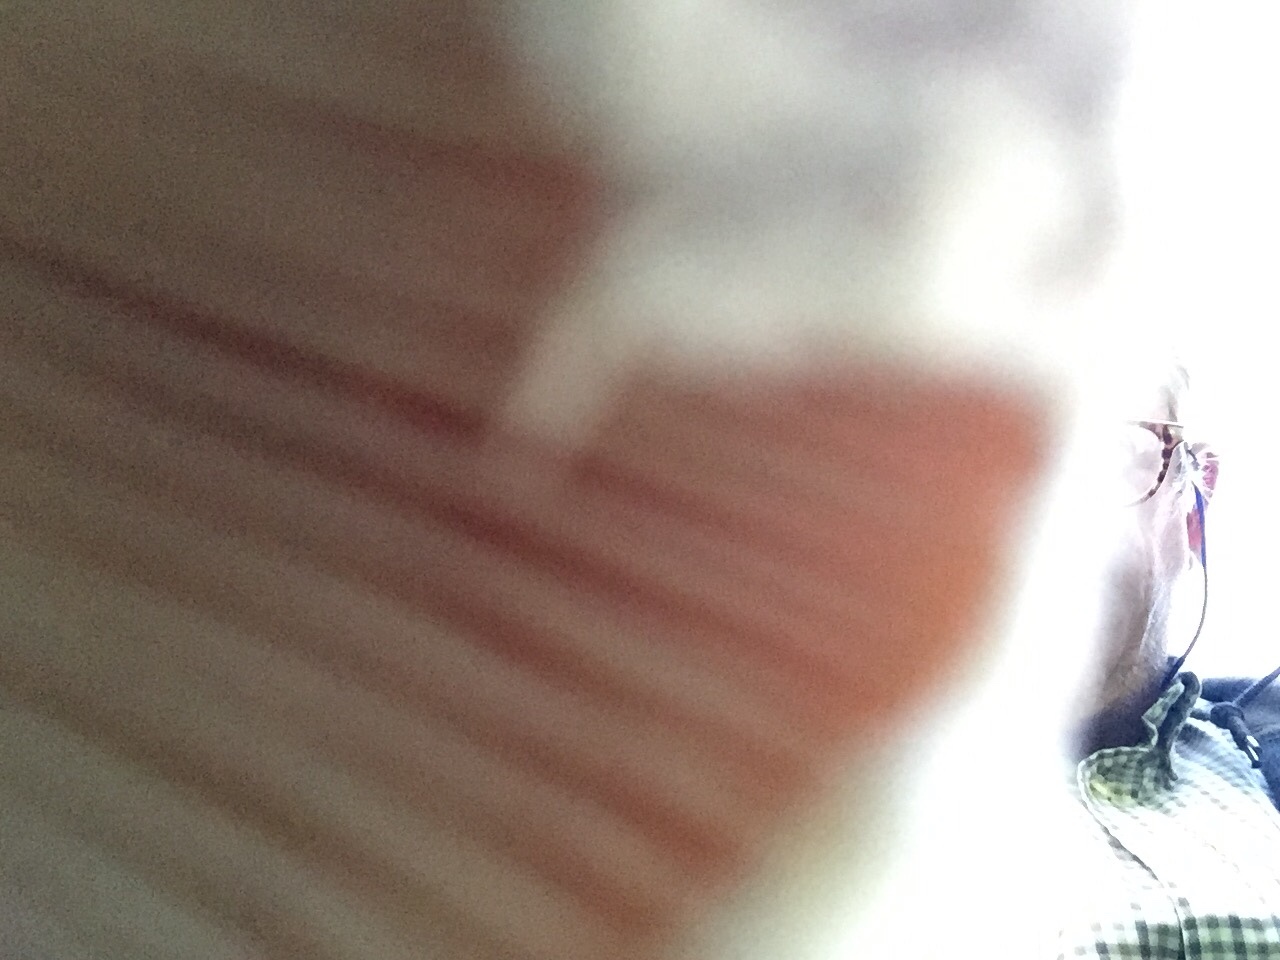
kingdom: Fungi
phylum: Basidiomycota
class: Agaricomycetes
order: Agaricales
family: Amanitaceae
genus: Amanita
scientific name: Amanita foetidissima
